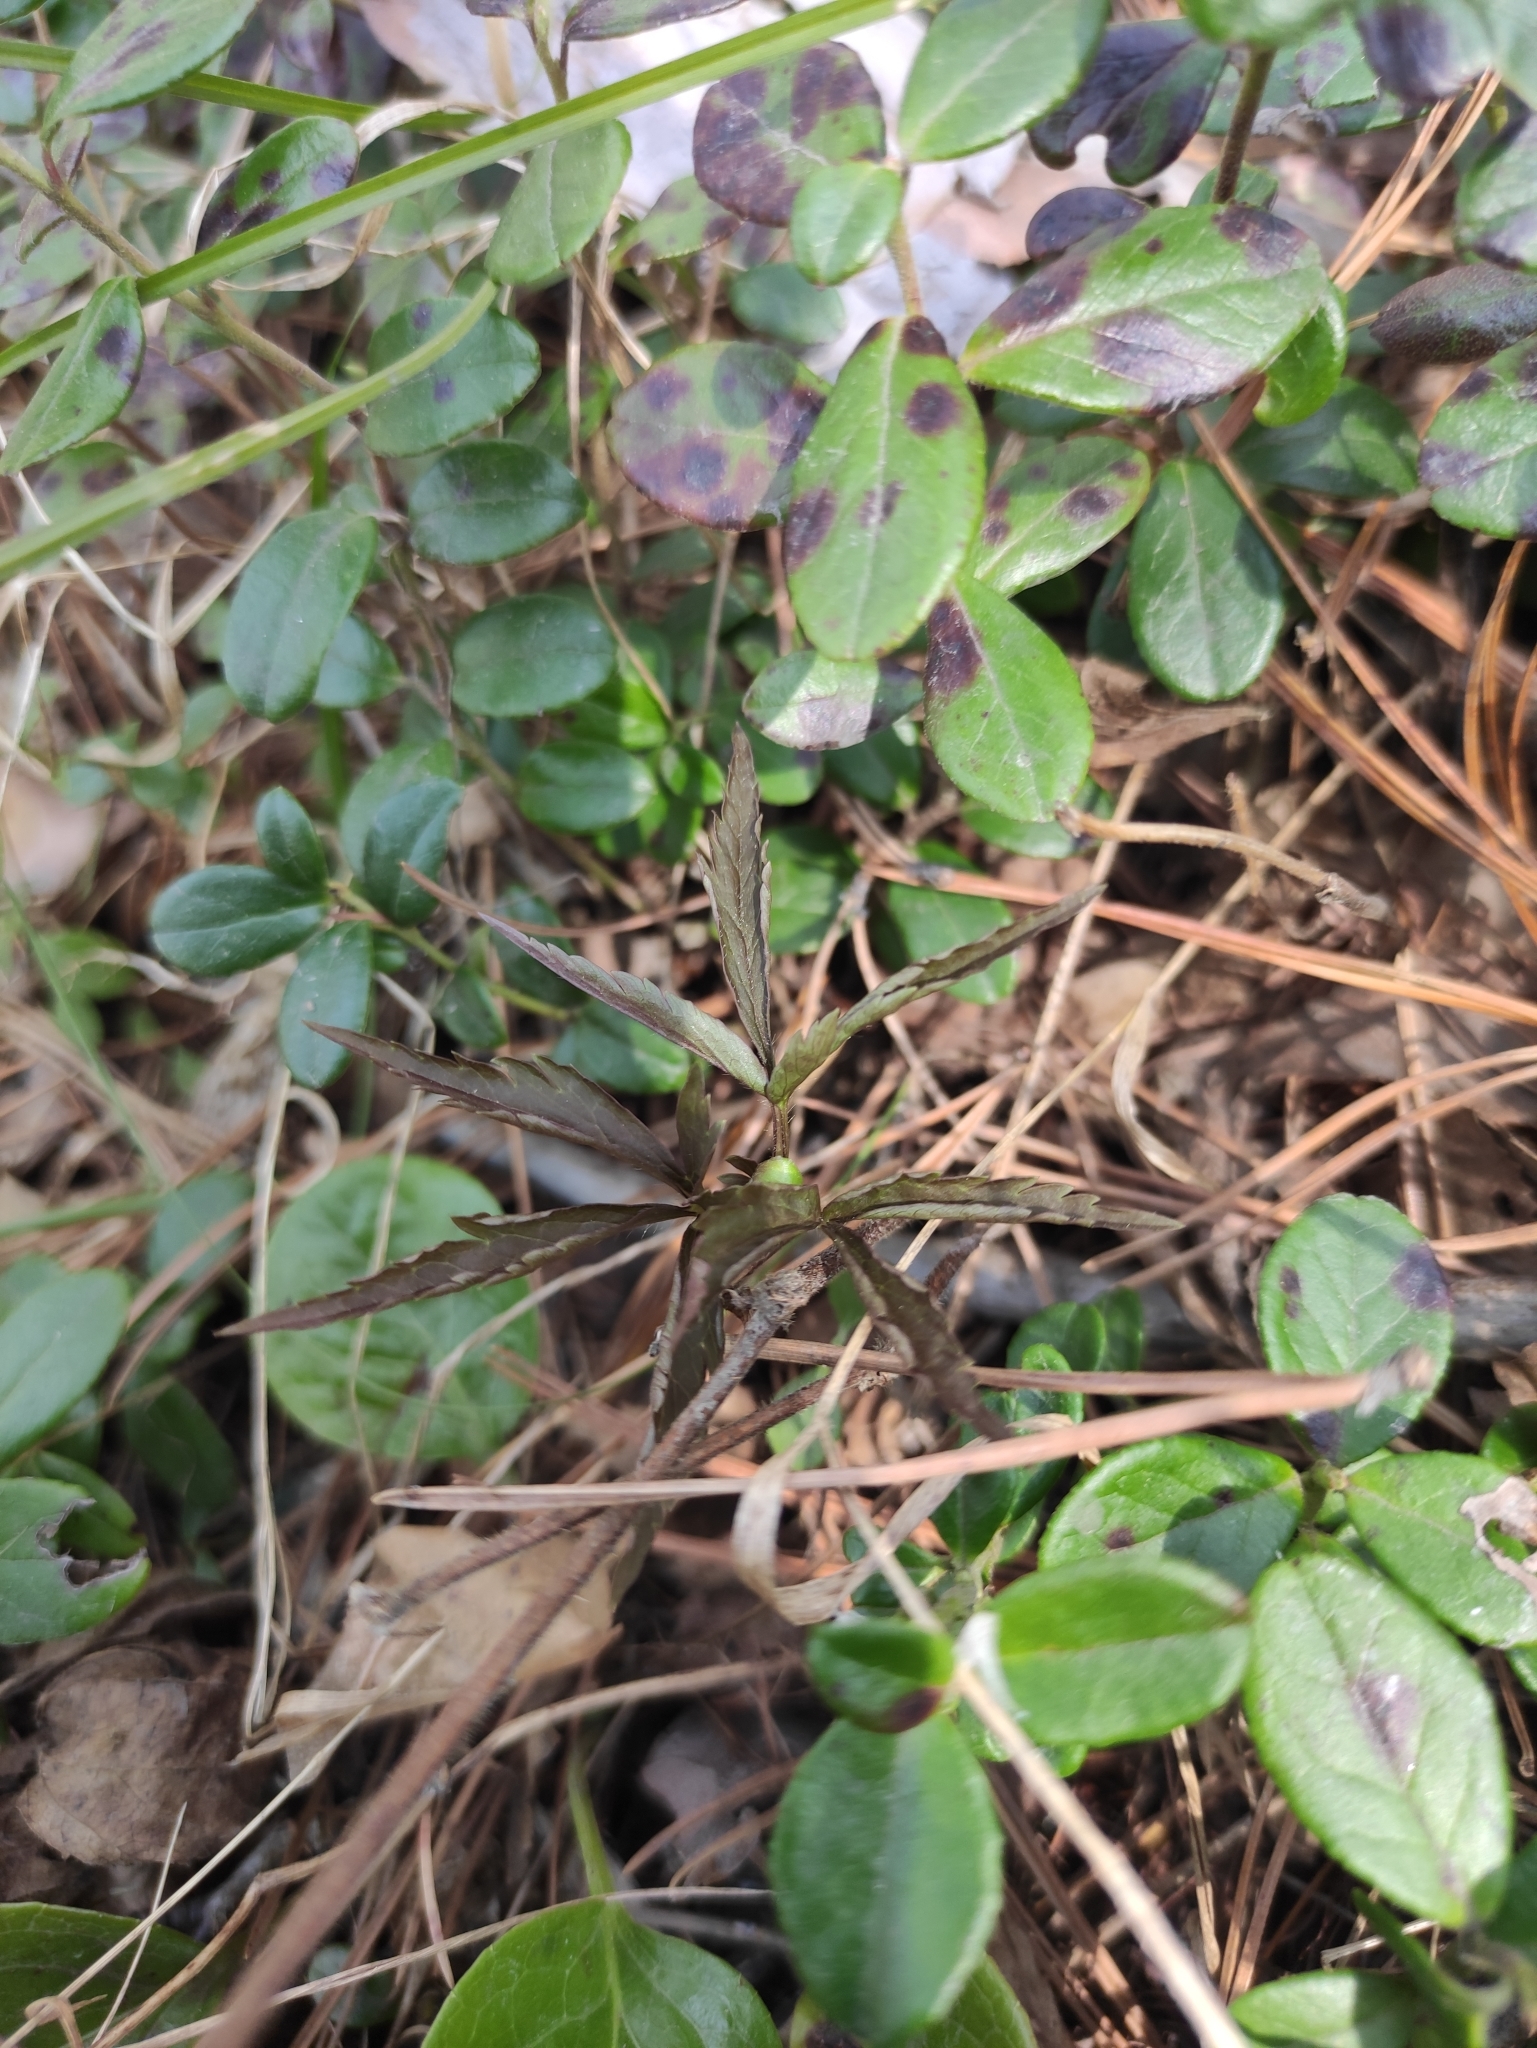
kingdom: Plantae
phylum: Tracheophyta
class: Magnoliopsida
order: Ranunculales
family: Ranunculaceae
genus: Anemone
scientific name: Anemone reflexa
